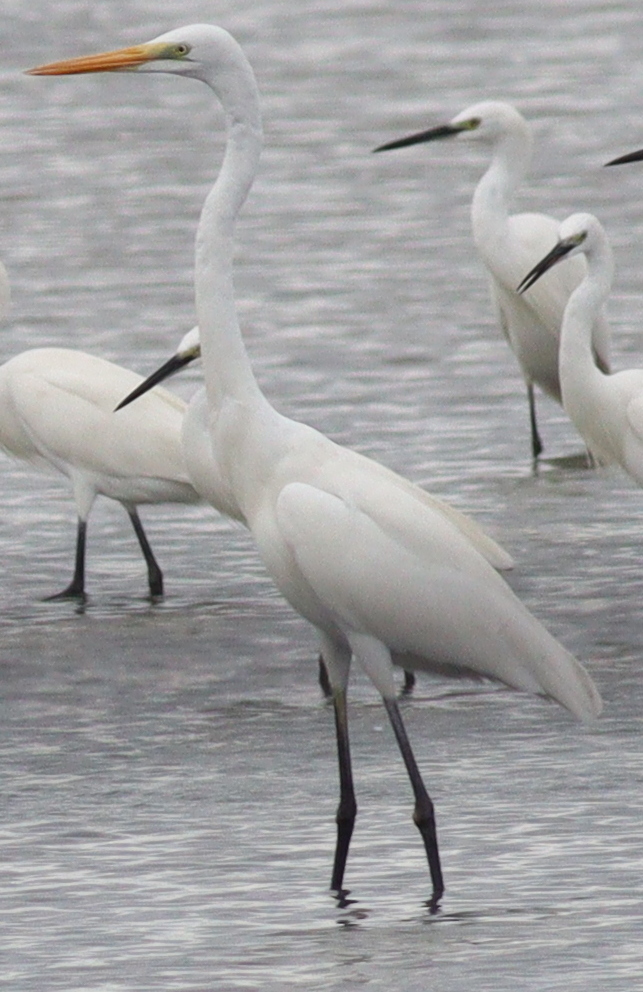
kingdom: Animalia
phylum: Chordata
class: Aves
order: Pelecaniformes
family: Ardeidae
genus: Ardea
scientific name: Ardea alba
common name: Great egret
